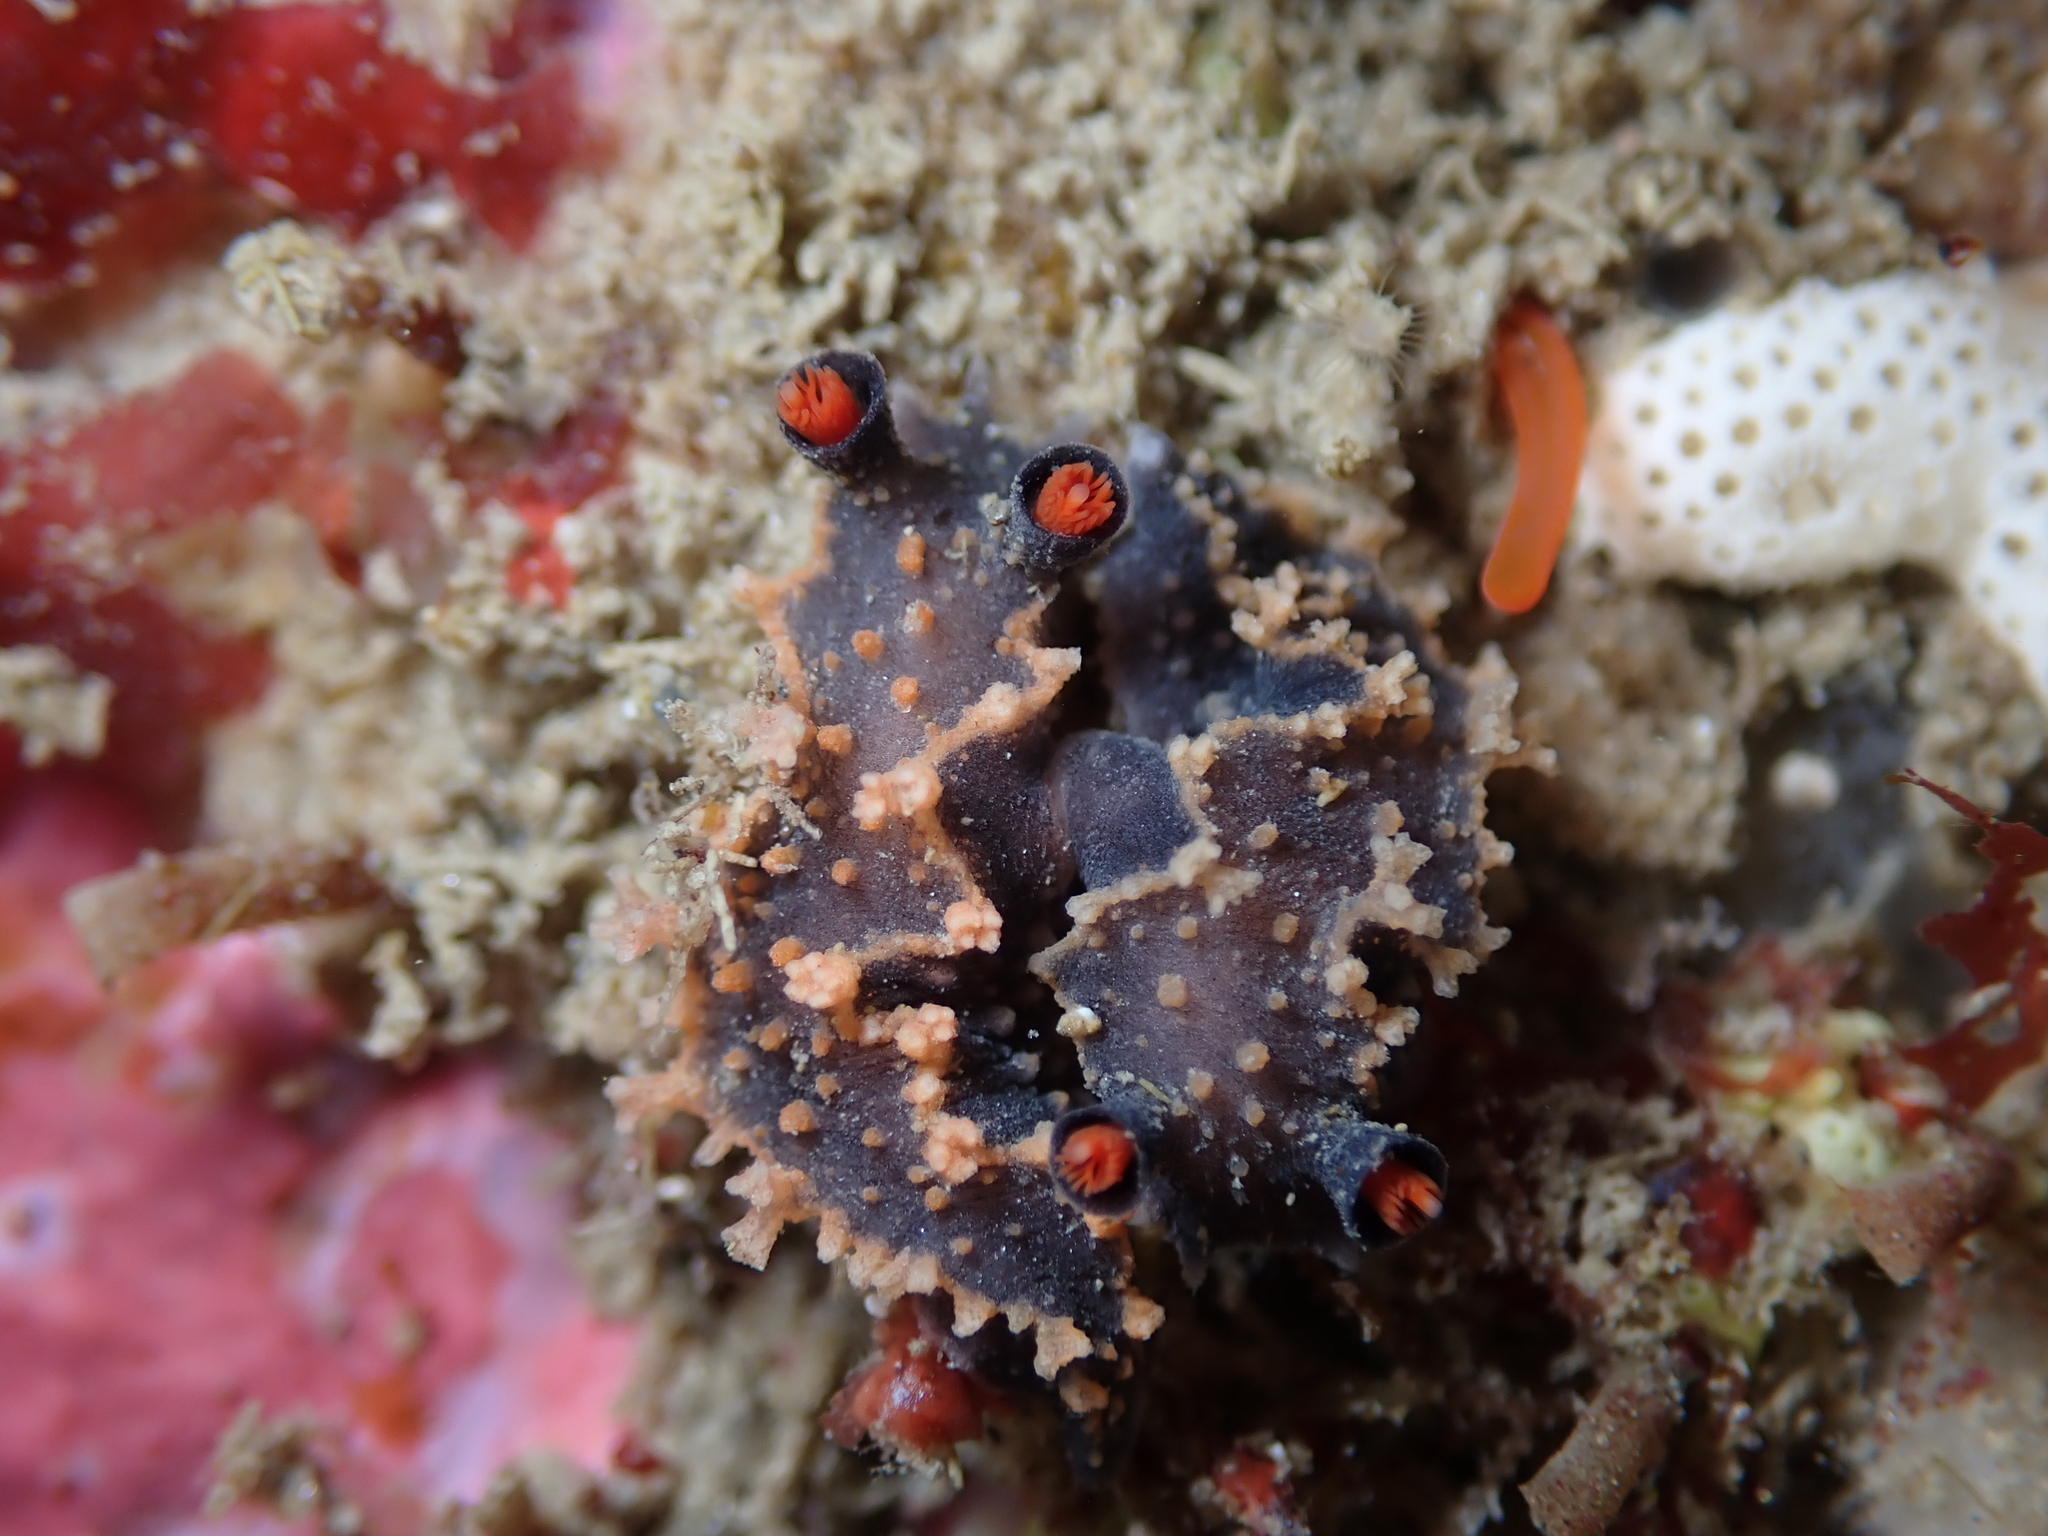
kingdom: Animalia
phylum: Mollusca
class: Gastropoda
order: Nudibranchia
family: Tritoniidae
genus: Tritonia
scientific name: Tritonia flemingi
